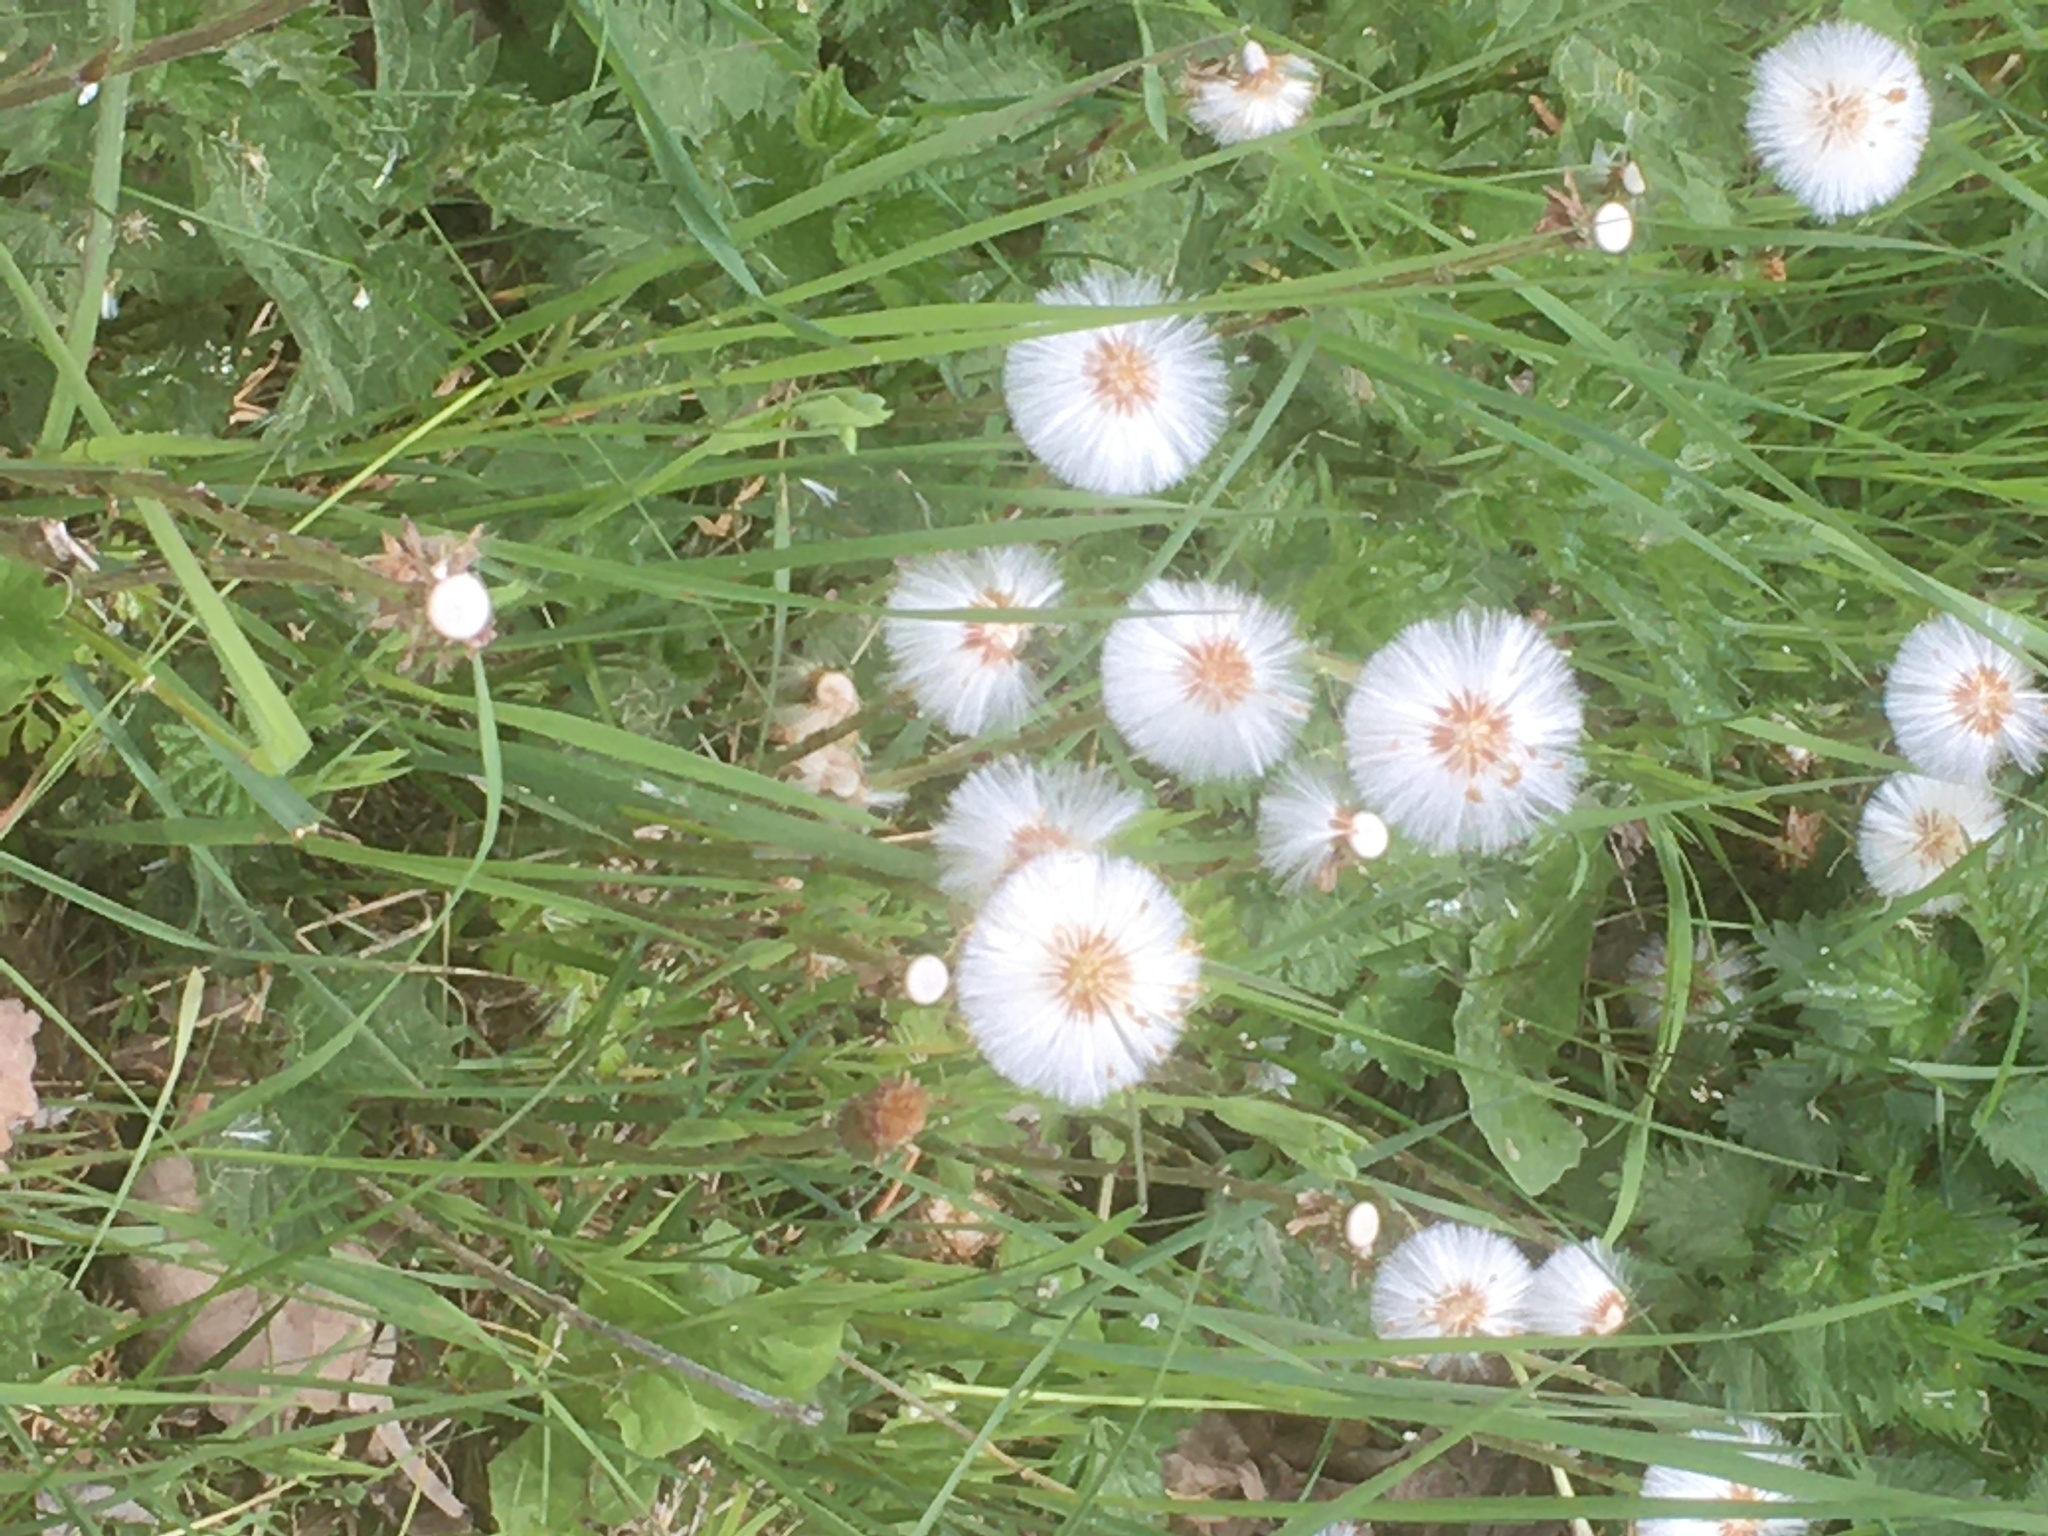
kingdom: Plantae
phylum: Tracheophyta
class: Magnoliopsida
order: Asterales
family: Asteraceae
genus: Tussilago
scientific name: Tussilago farfara
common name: Coltsfoot
